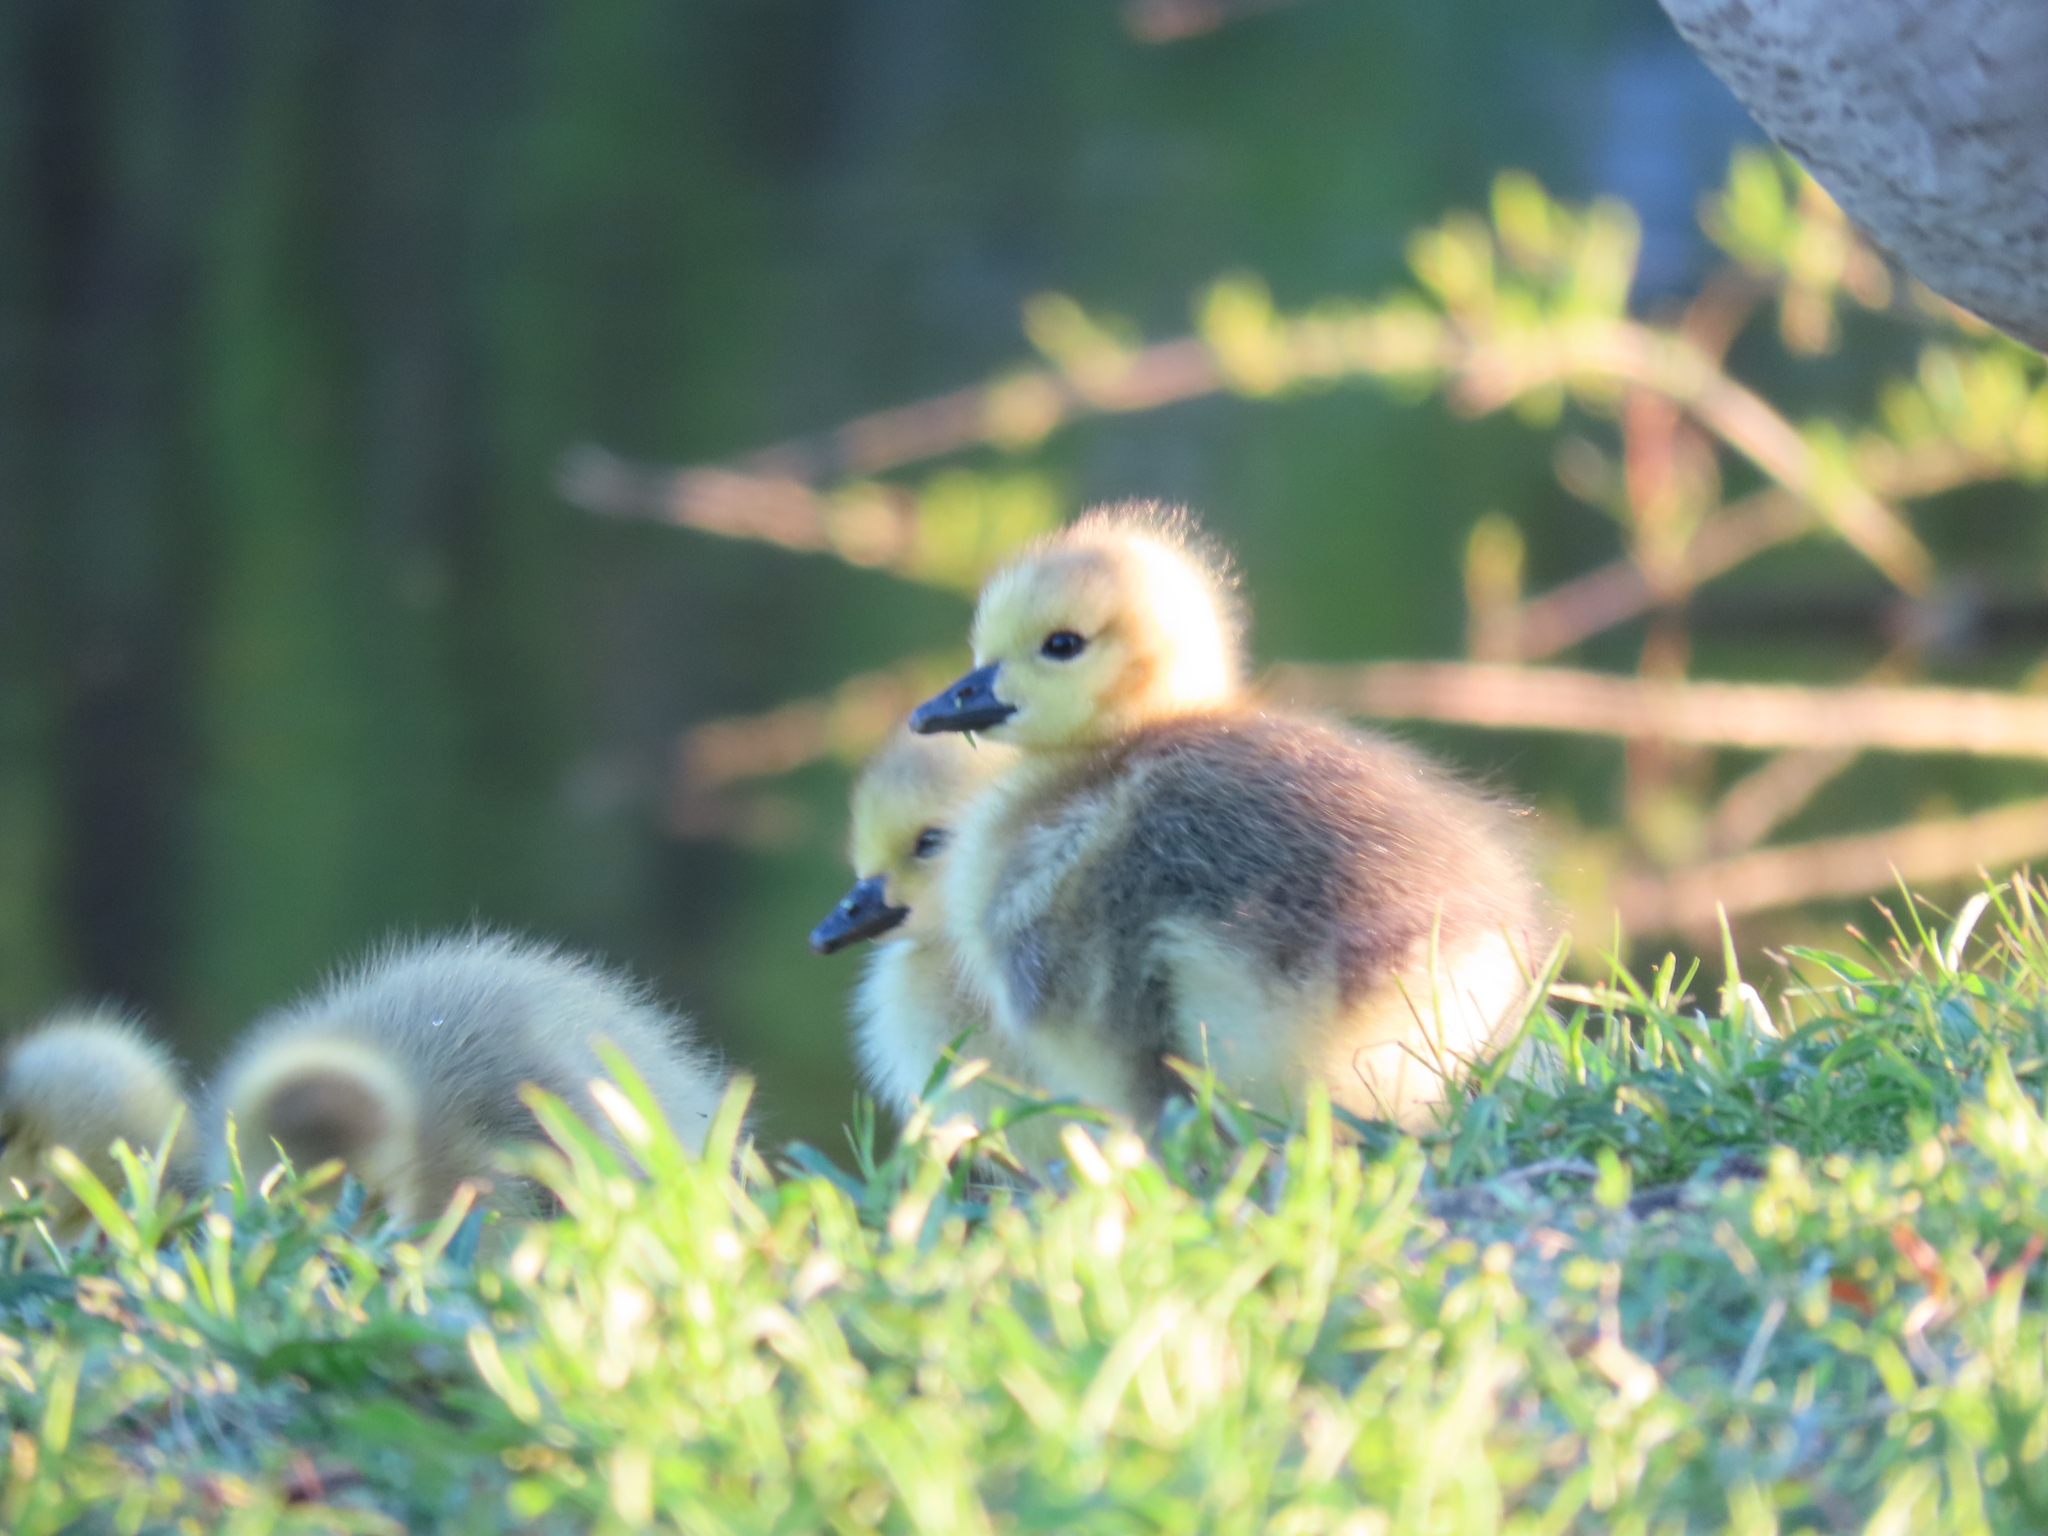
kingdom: Animalia
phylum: Chordata
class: Aves
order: Anseriformes
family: Anatidae
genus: Branta
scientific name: Branta canadensis
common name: Canada goose
